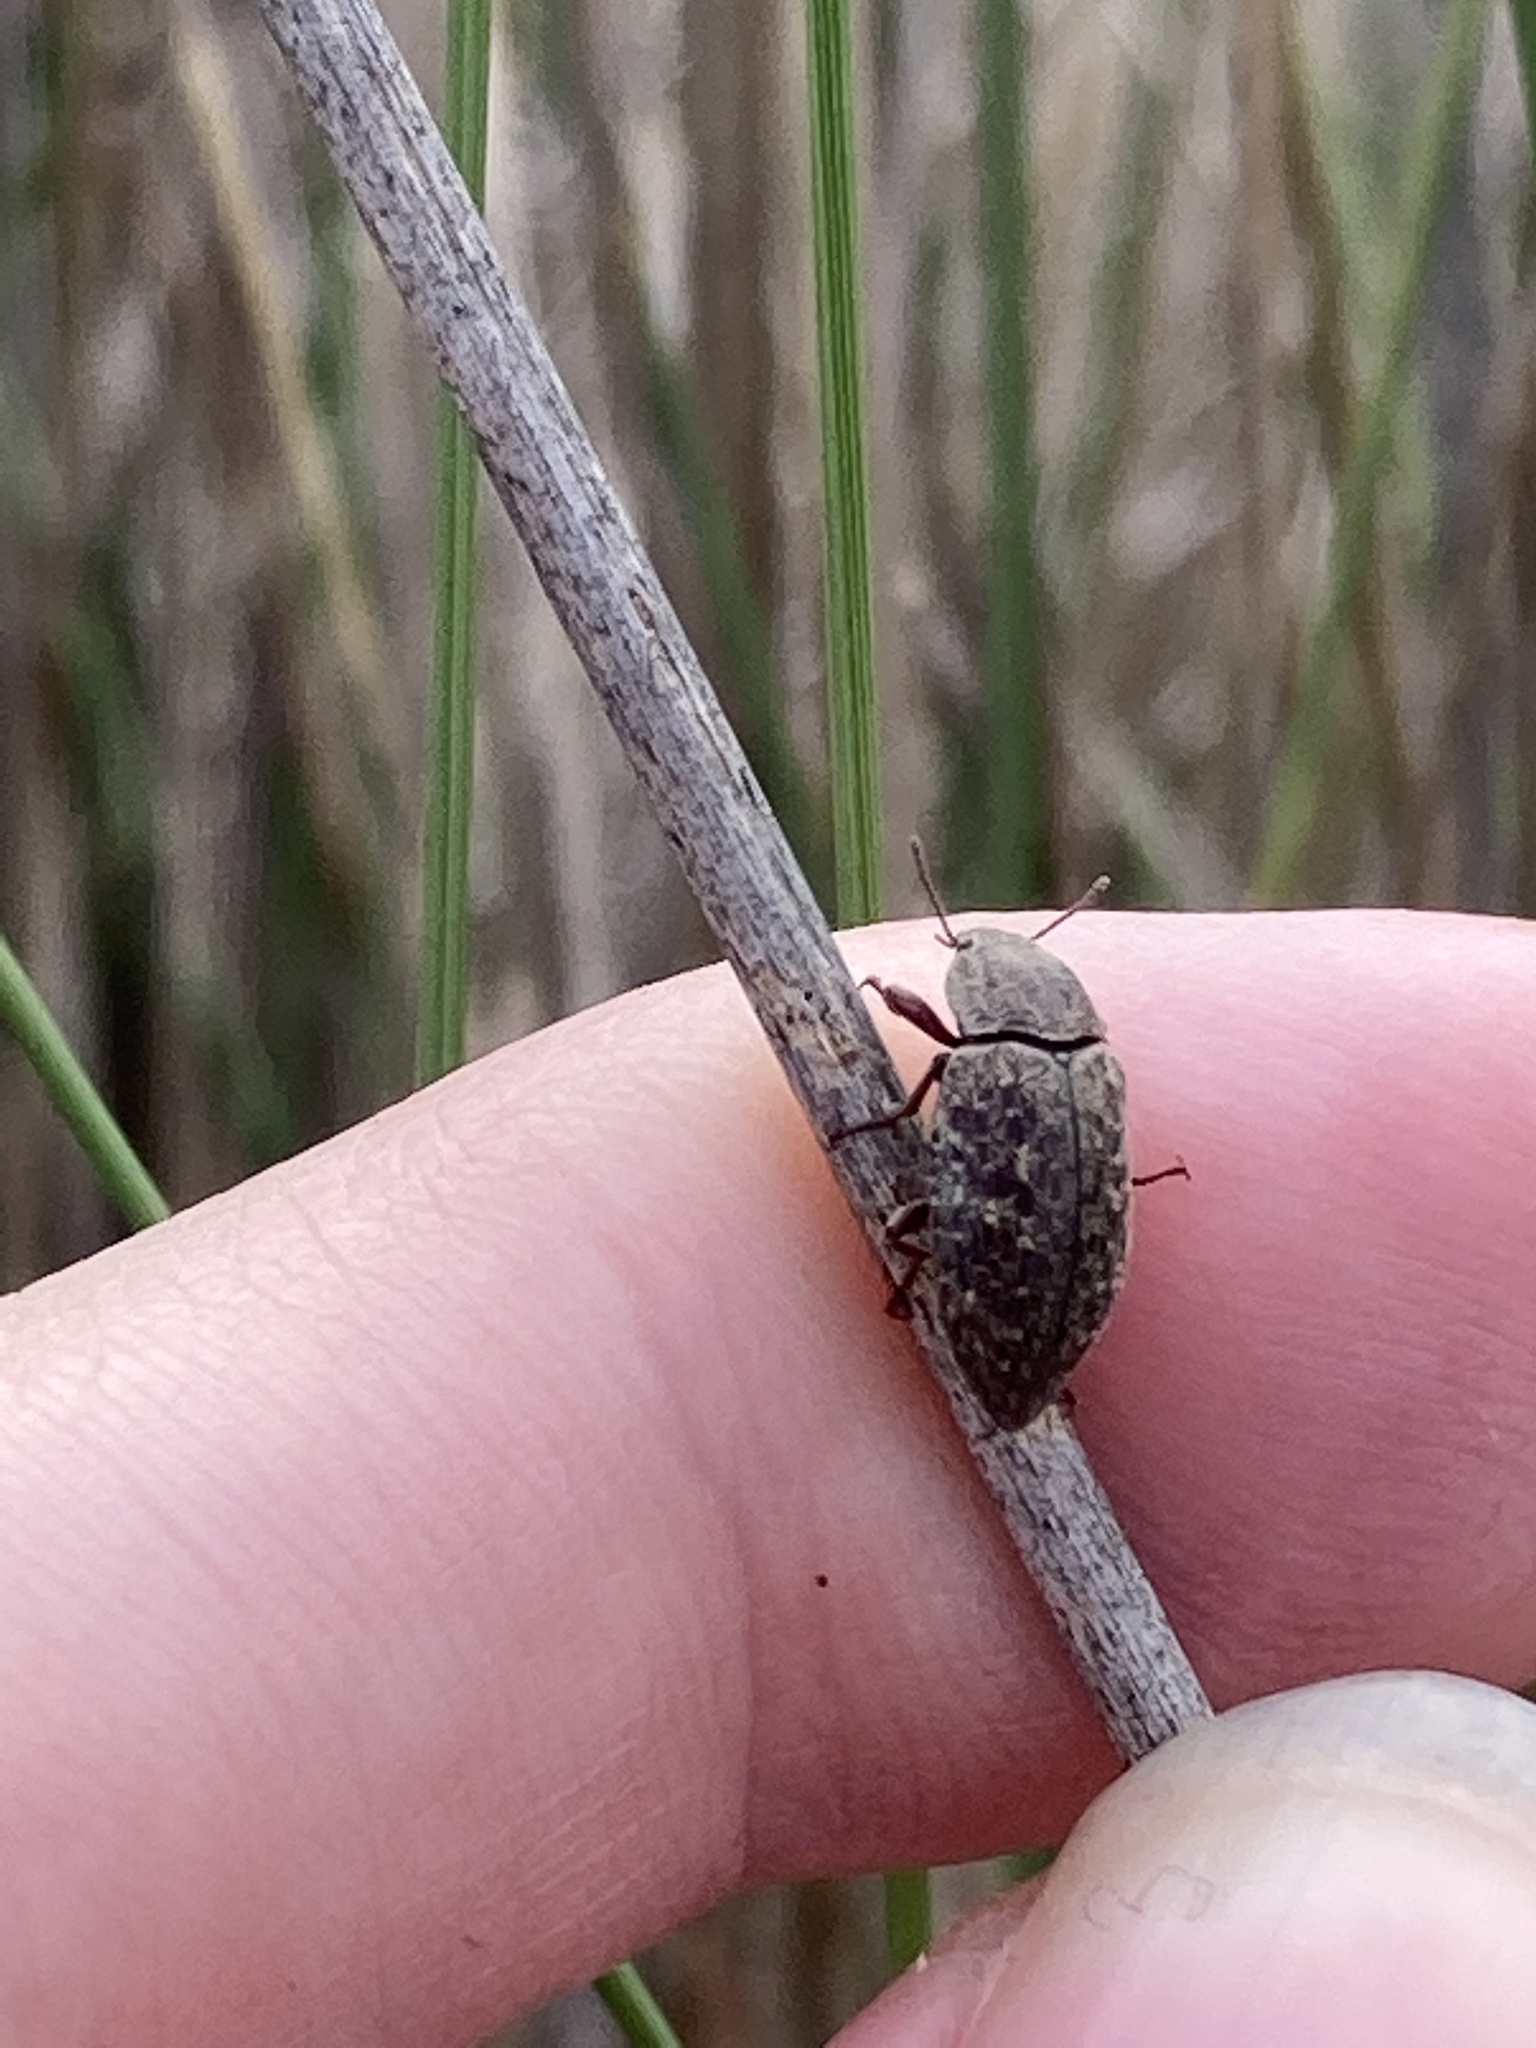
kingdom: Animalia
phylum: Arthropoda
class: Insecta
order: Coleoptera
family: Tenebrionidae
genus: Epitragodes
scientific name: Epitragodes tomentosus
